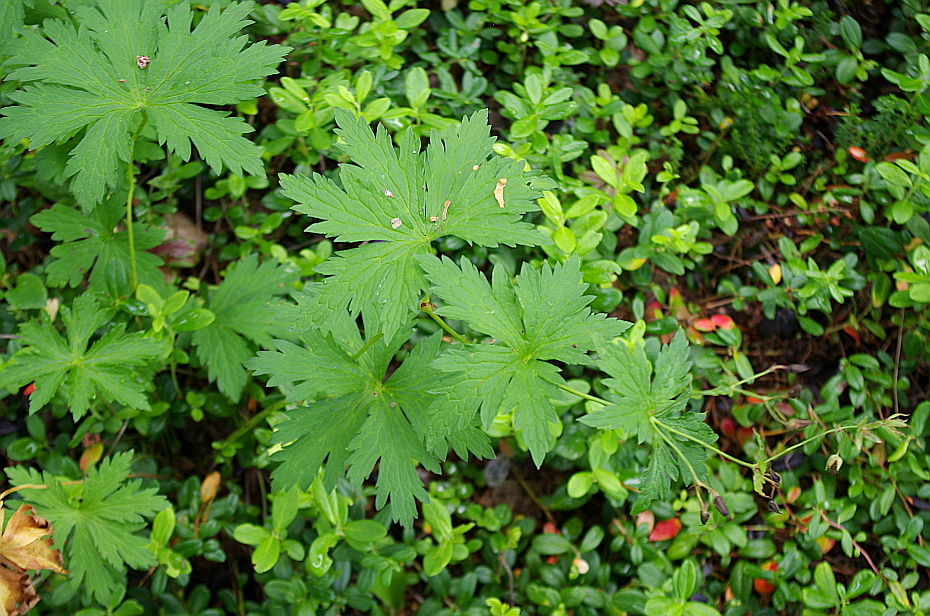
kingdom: Plantae
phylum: Tracheophyta
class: Magnoliopsida
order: Geraniales
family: Geraniaceae
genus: Geranium
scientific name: Geranium sylvaticum
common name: Wood crane's-bill
